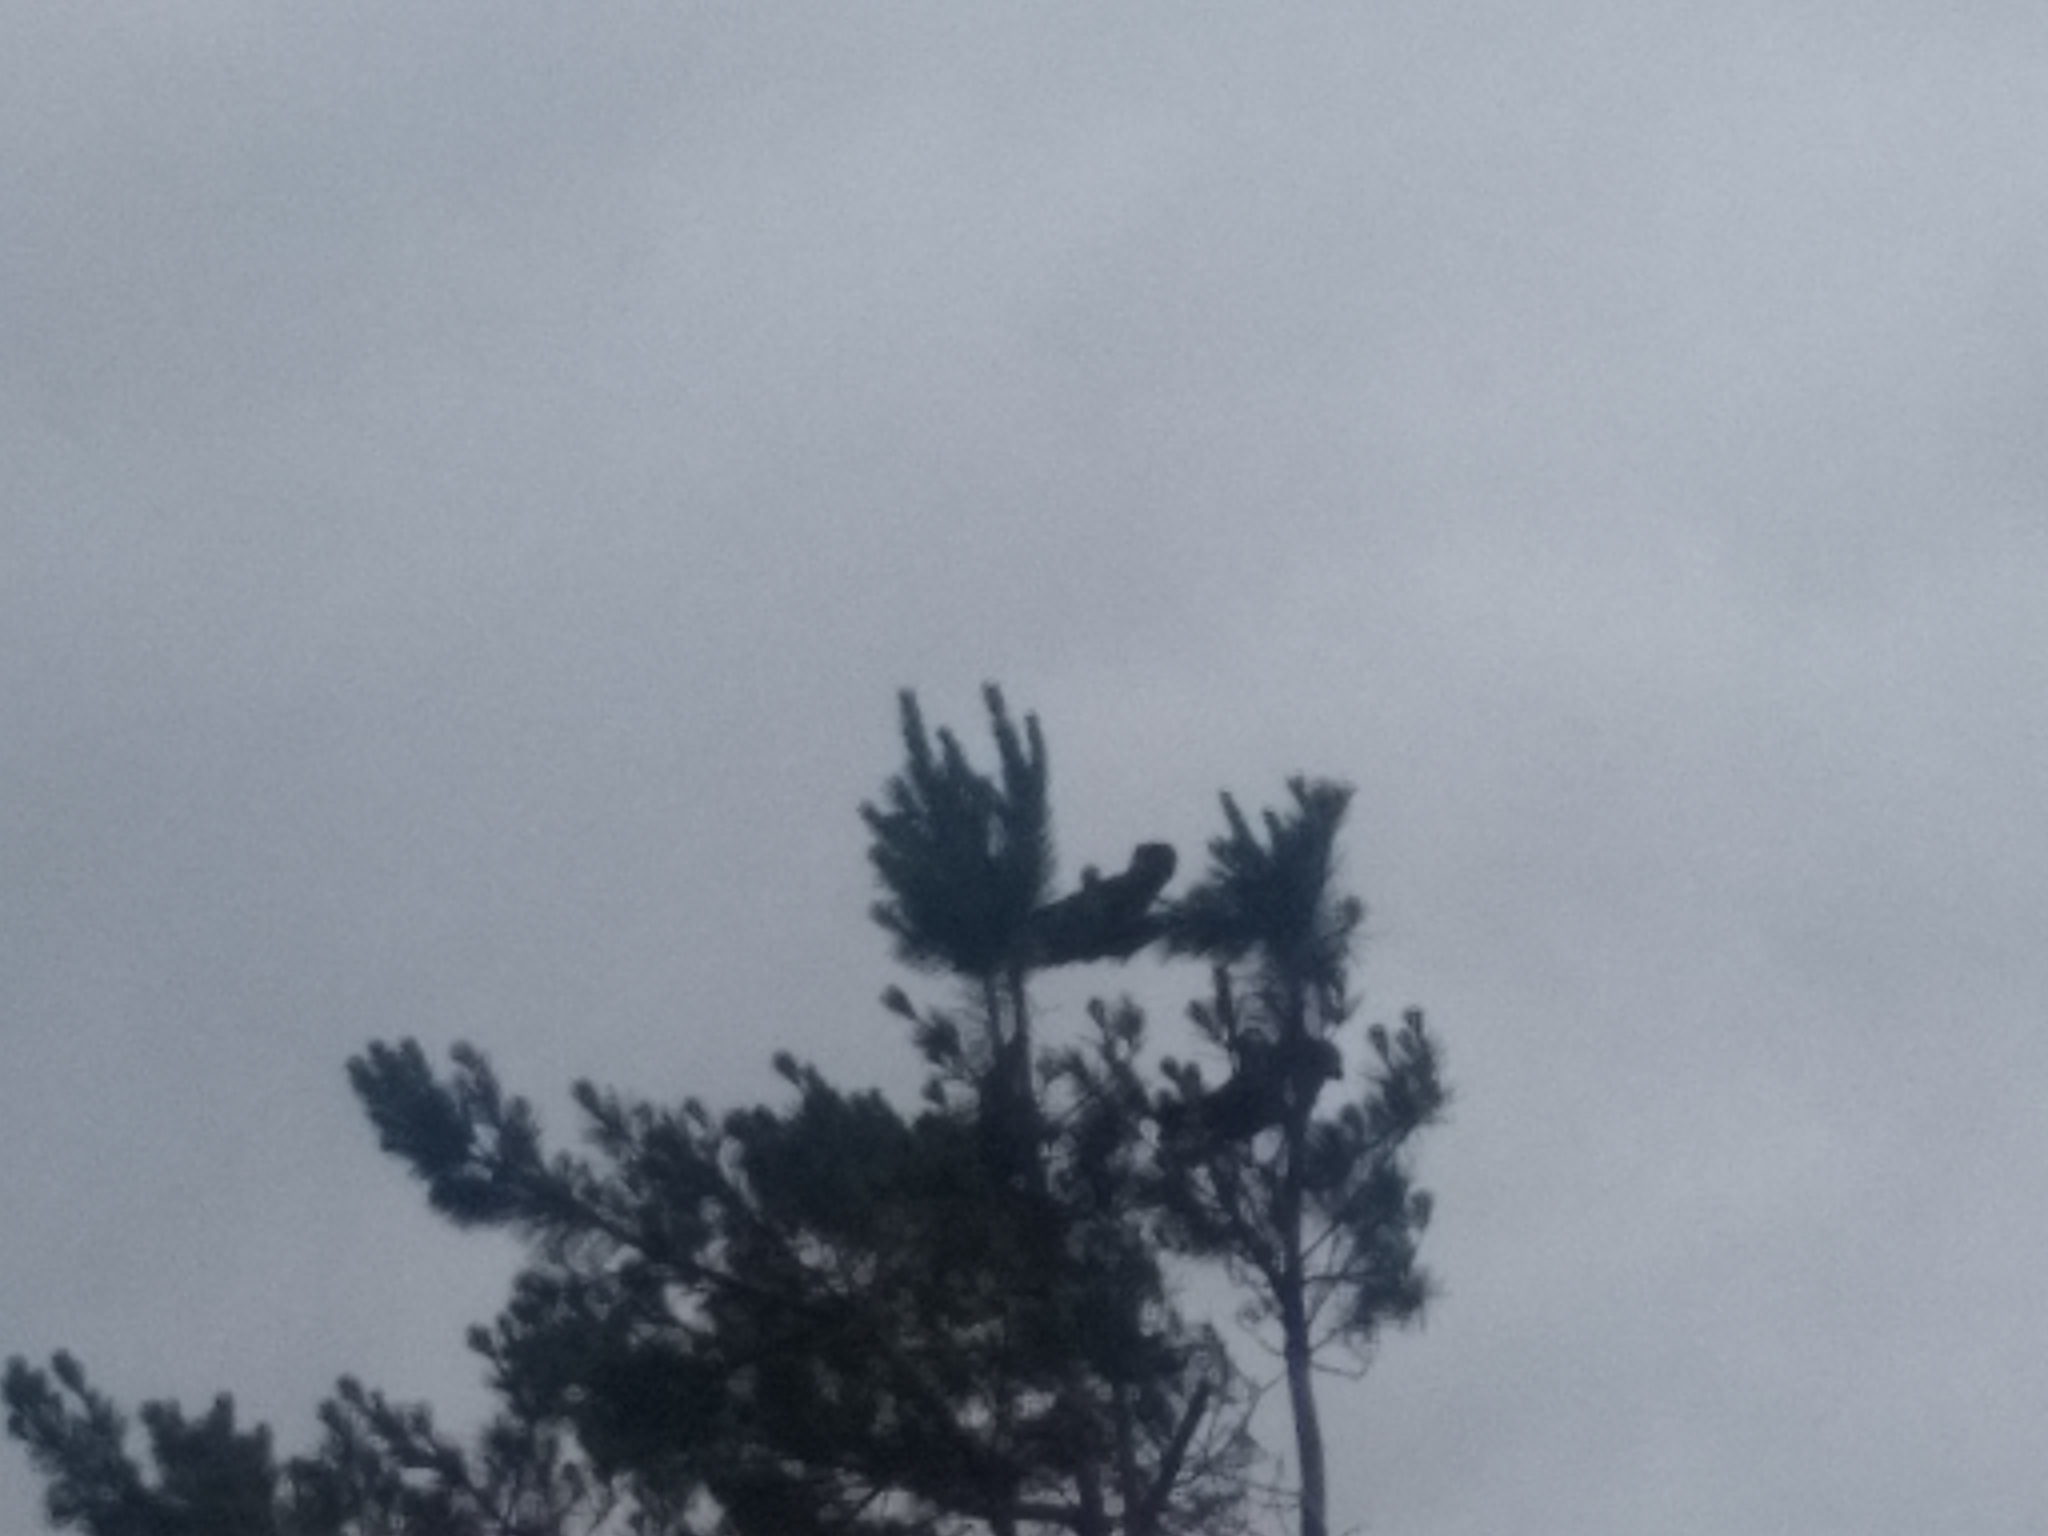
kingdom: Animalia
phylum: Chordata
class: Aves
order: Psittaciformes
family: Cacatuidae
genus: Zanda
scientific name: Zanda funerea
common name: Yellow-tailed black-cockatoo
